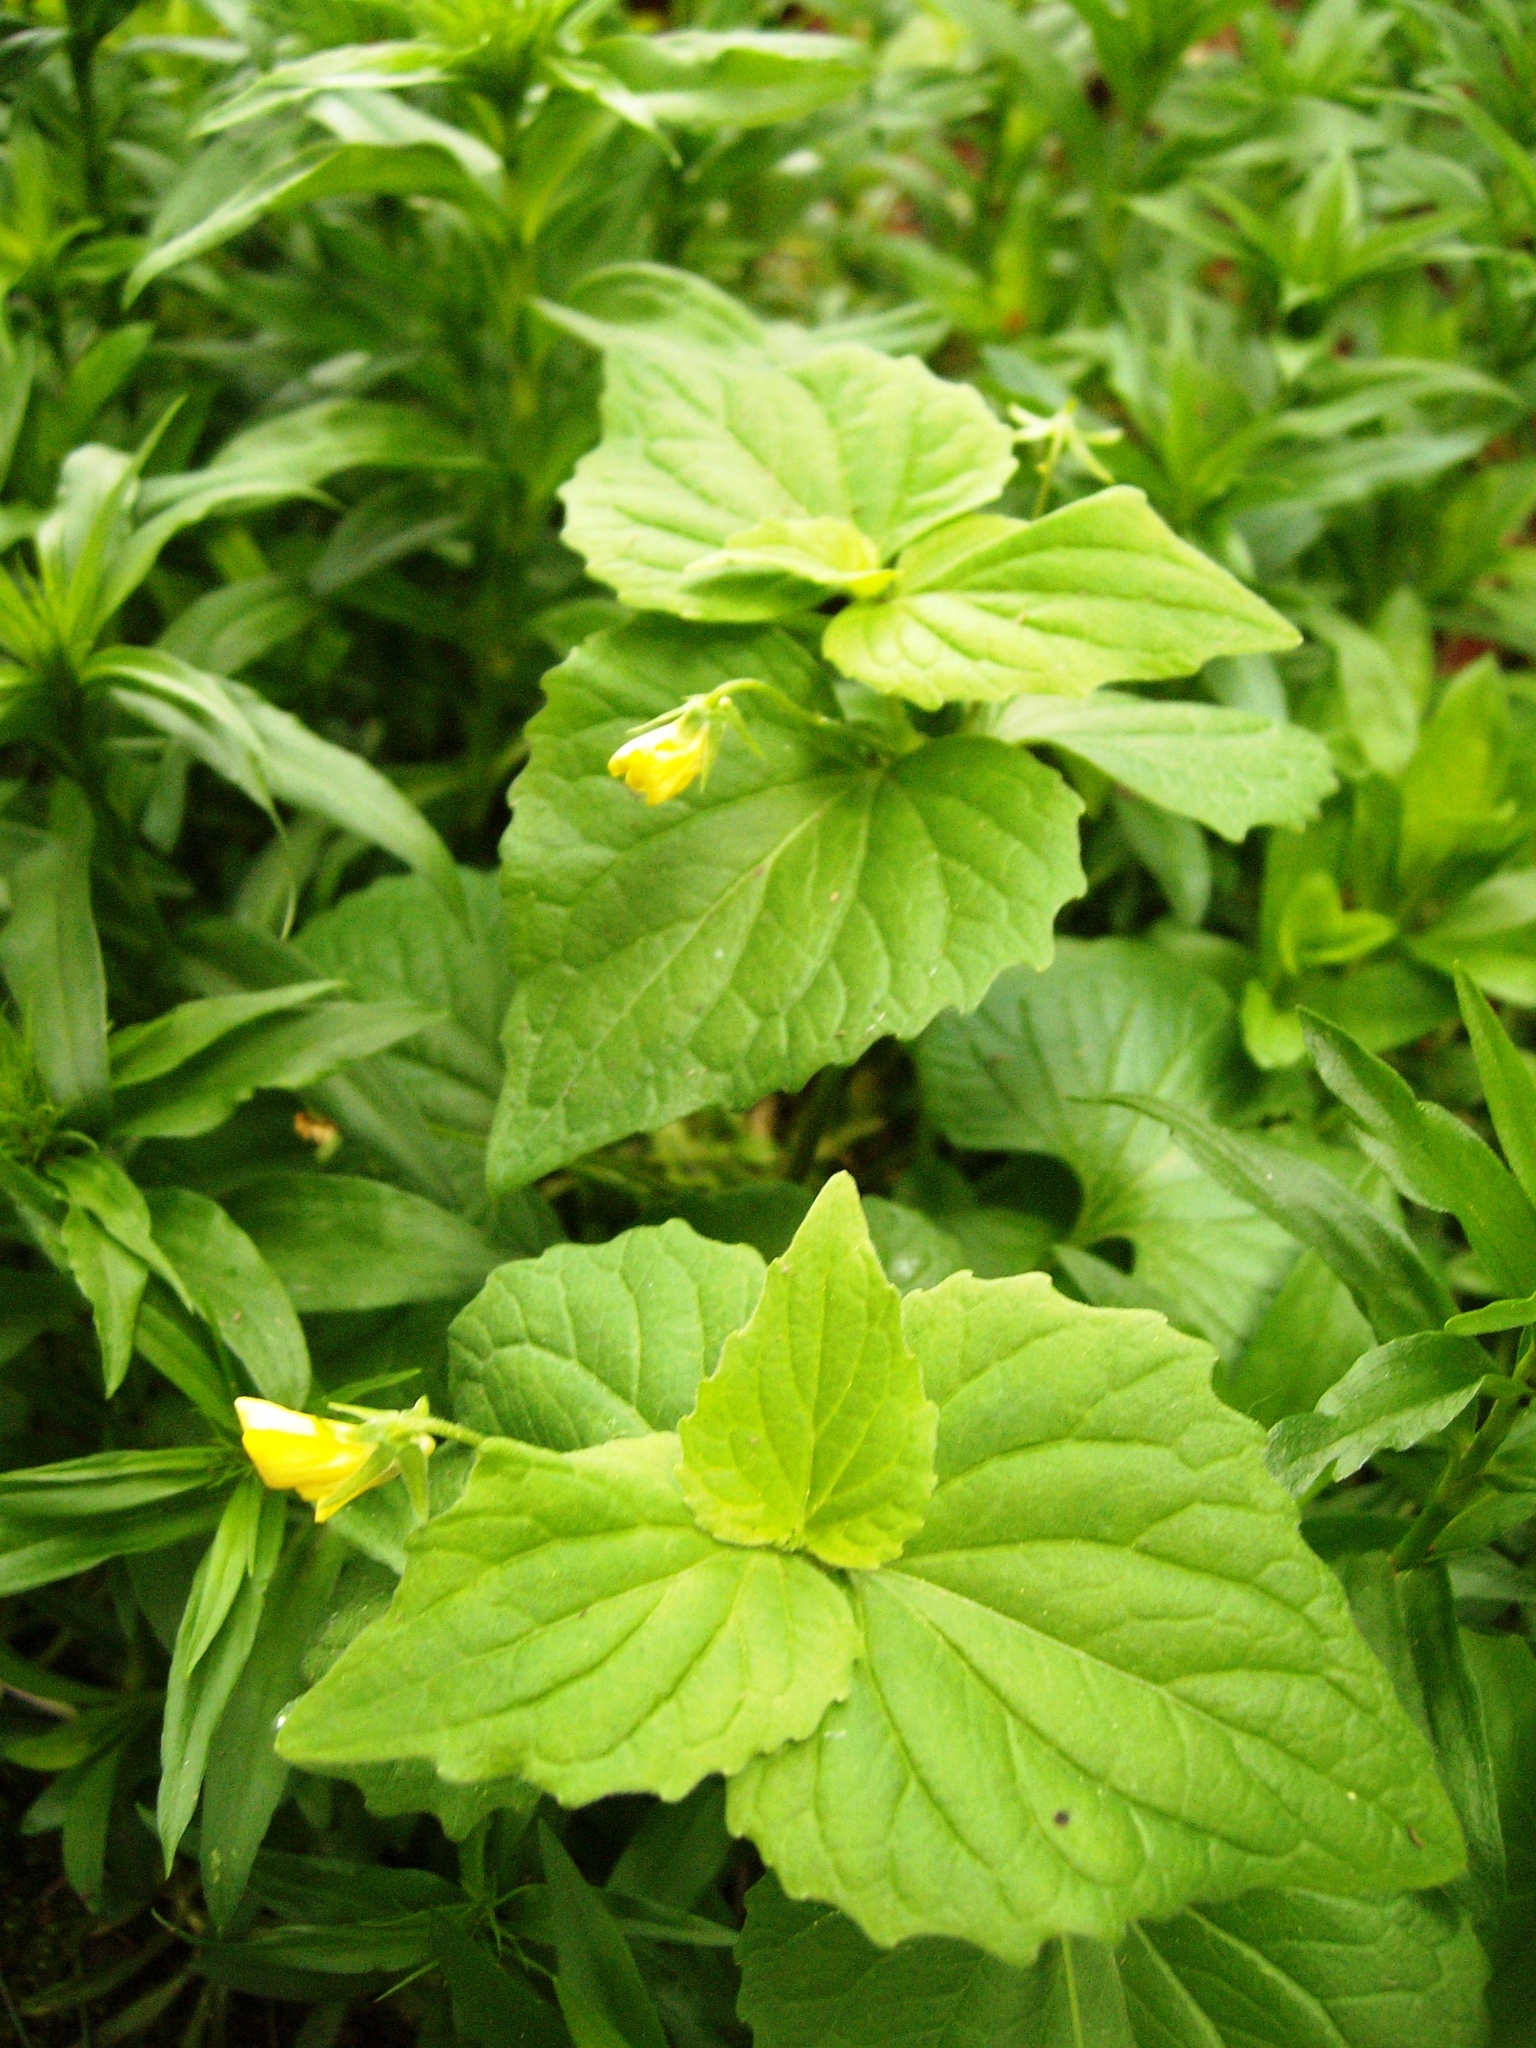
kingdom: Plantae
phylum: Tracheophyta
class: Magnoliopsida
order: Malpighiales
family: Violaceae
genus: Viola
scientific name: Viola eriocarpa
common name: Smooth yellow violet
